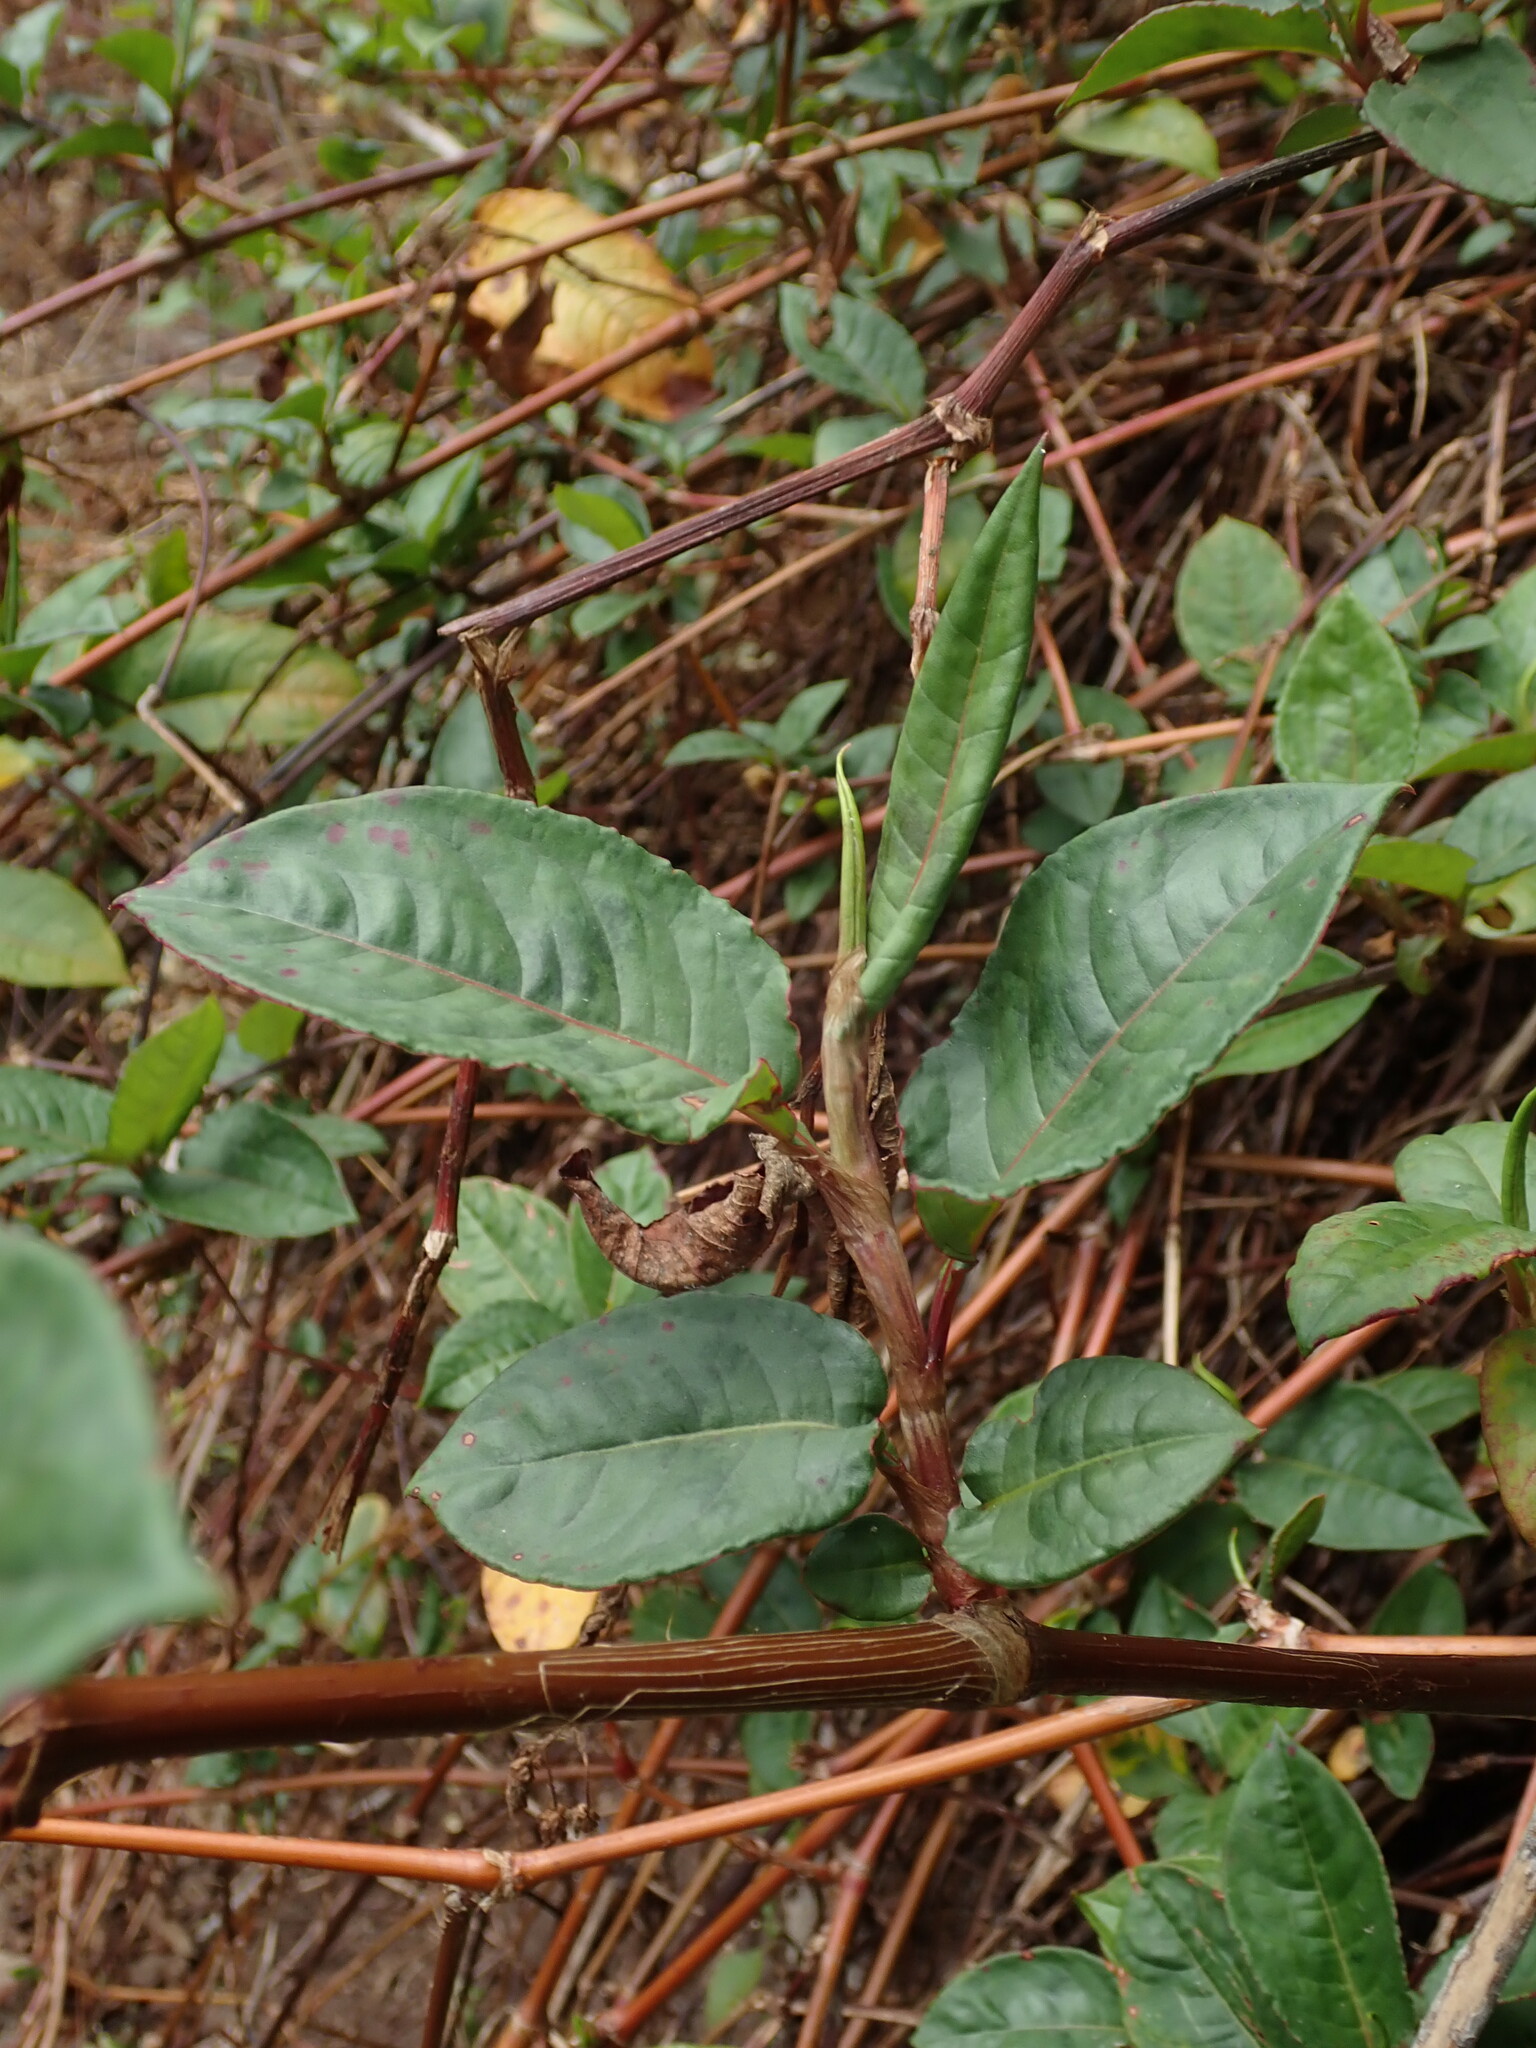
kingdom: Plantae
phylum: Tracheophyta
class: Magnoliopsida
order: Caryophyllales
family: Polygonaceae
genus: Persicaria
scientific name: Persicaria chinensis
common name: Chinese knotweed
